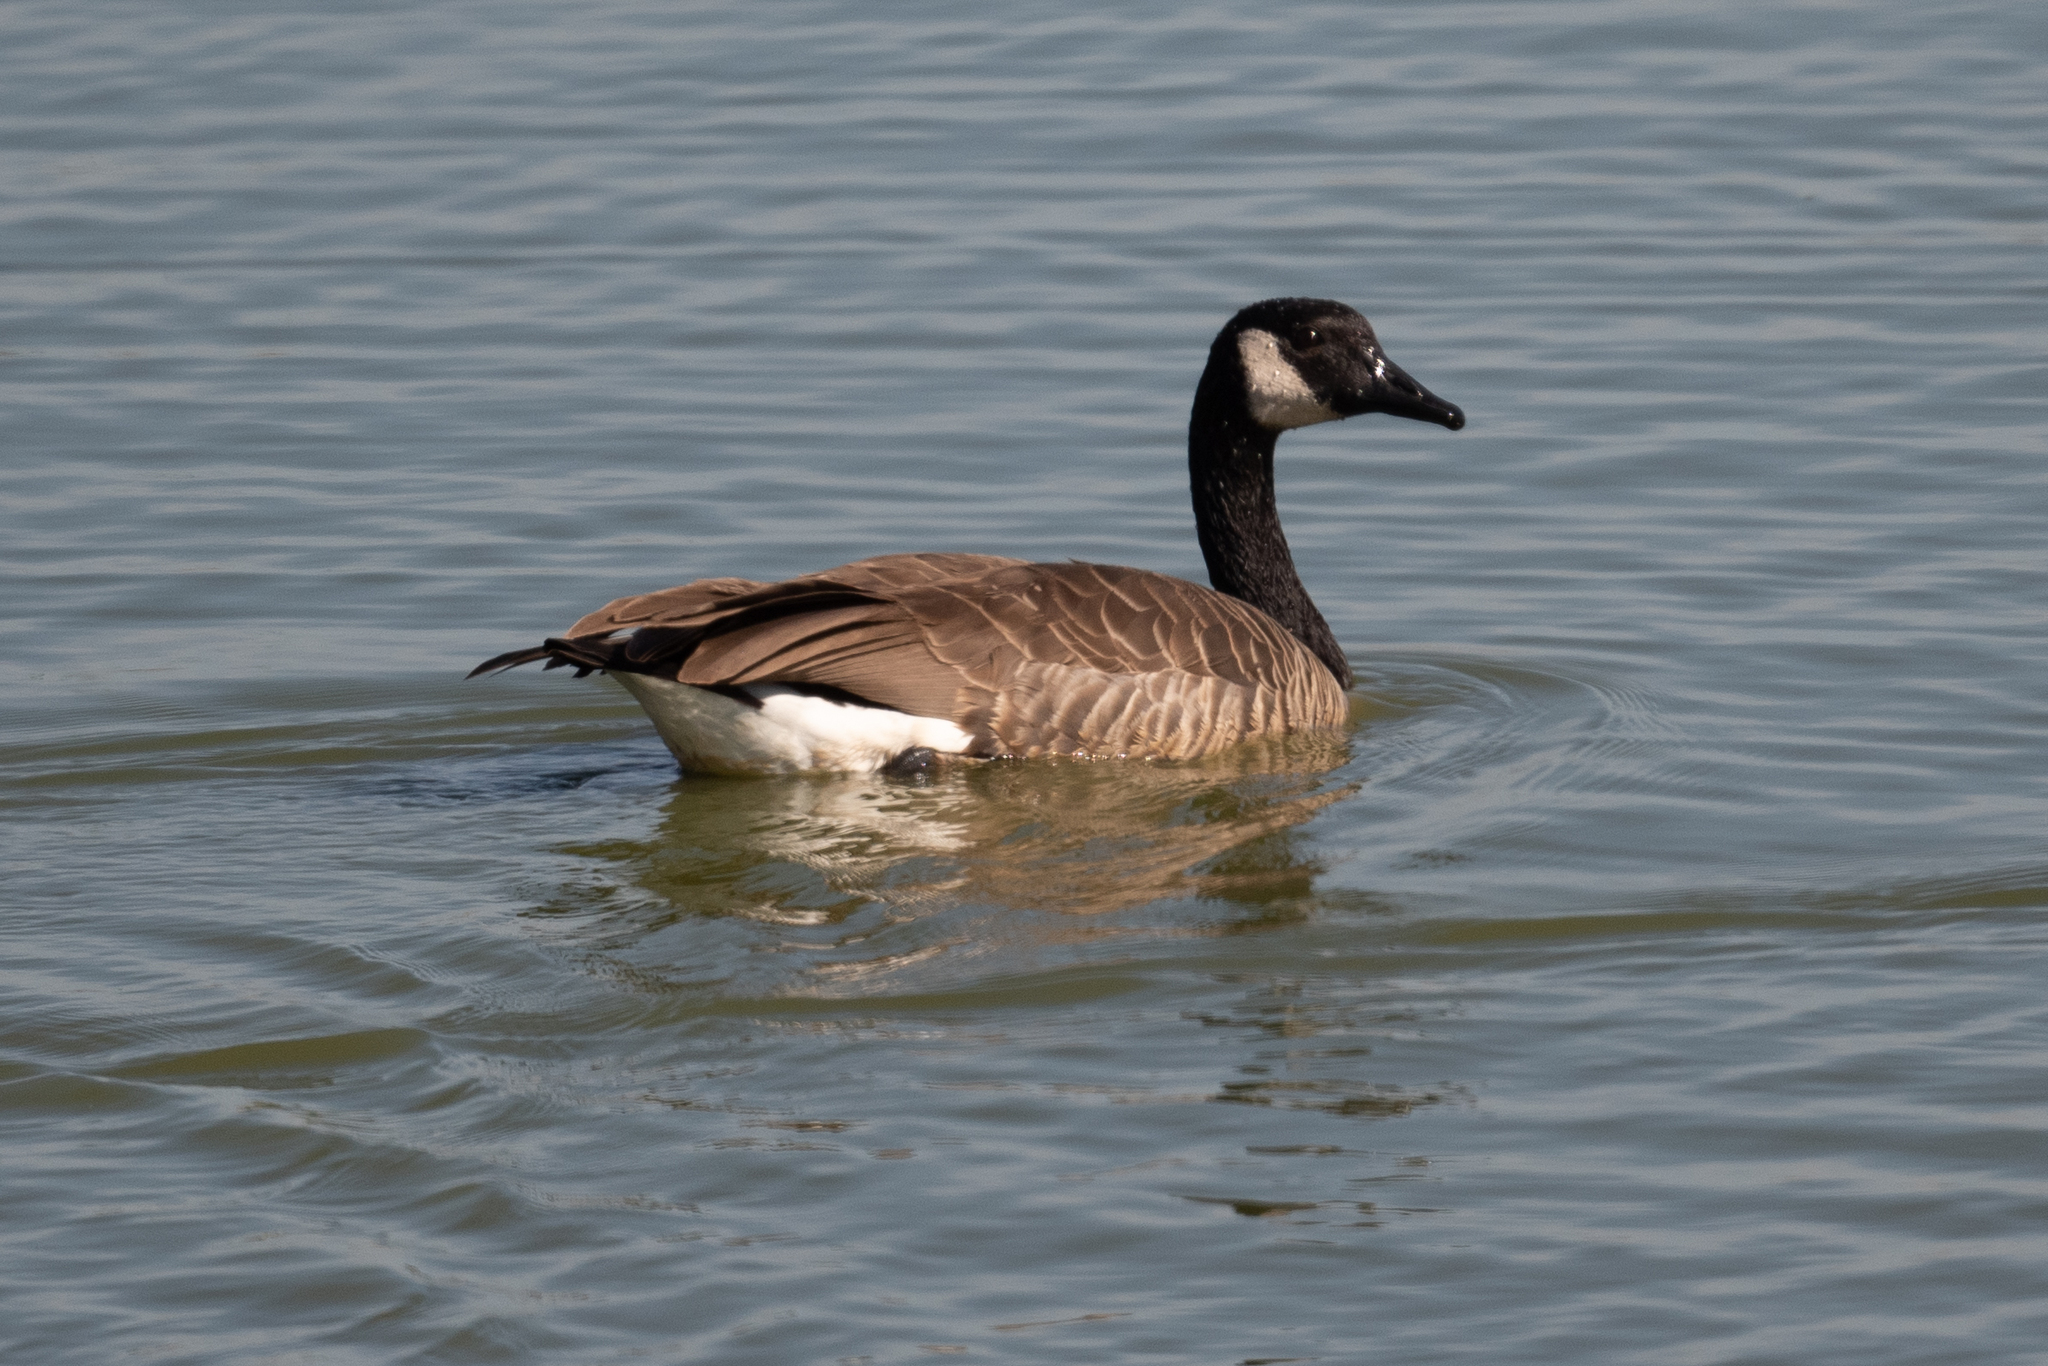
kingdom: Animalia
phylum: Chordata
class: Aves
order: Anseriformes
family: Anatidae
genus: Branta
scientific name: Branta canadensis
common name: Canada goose
